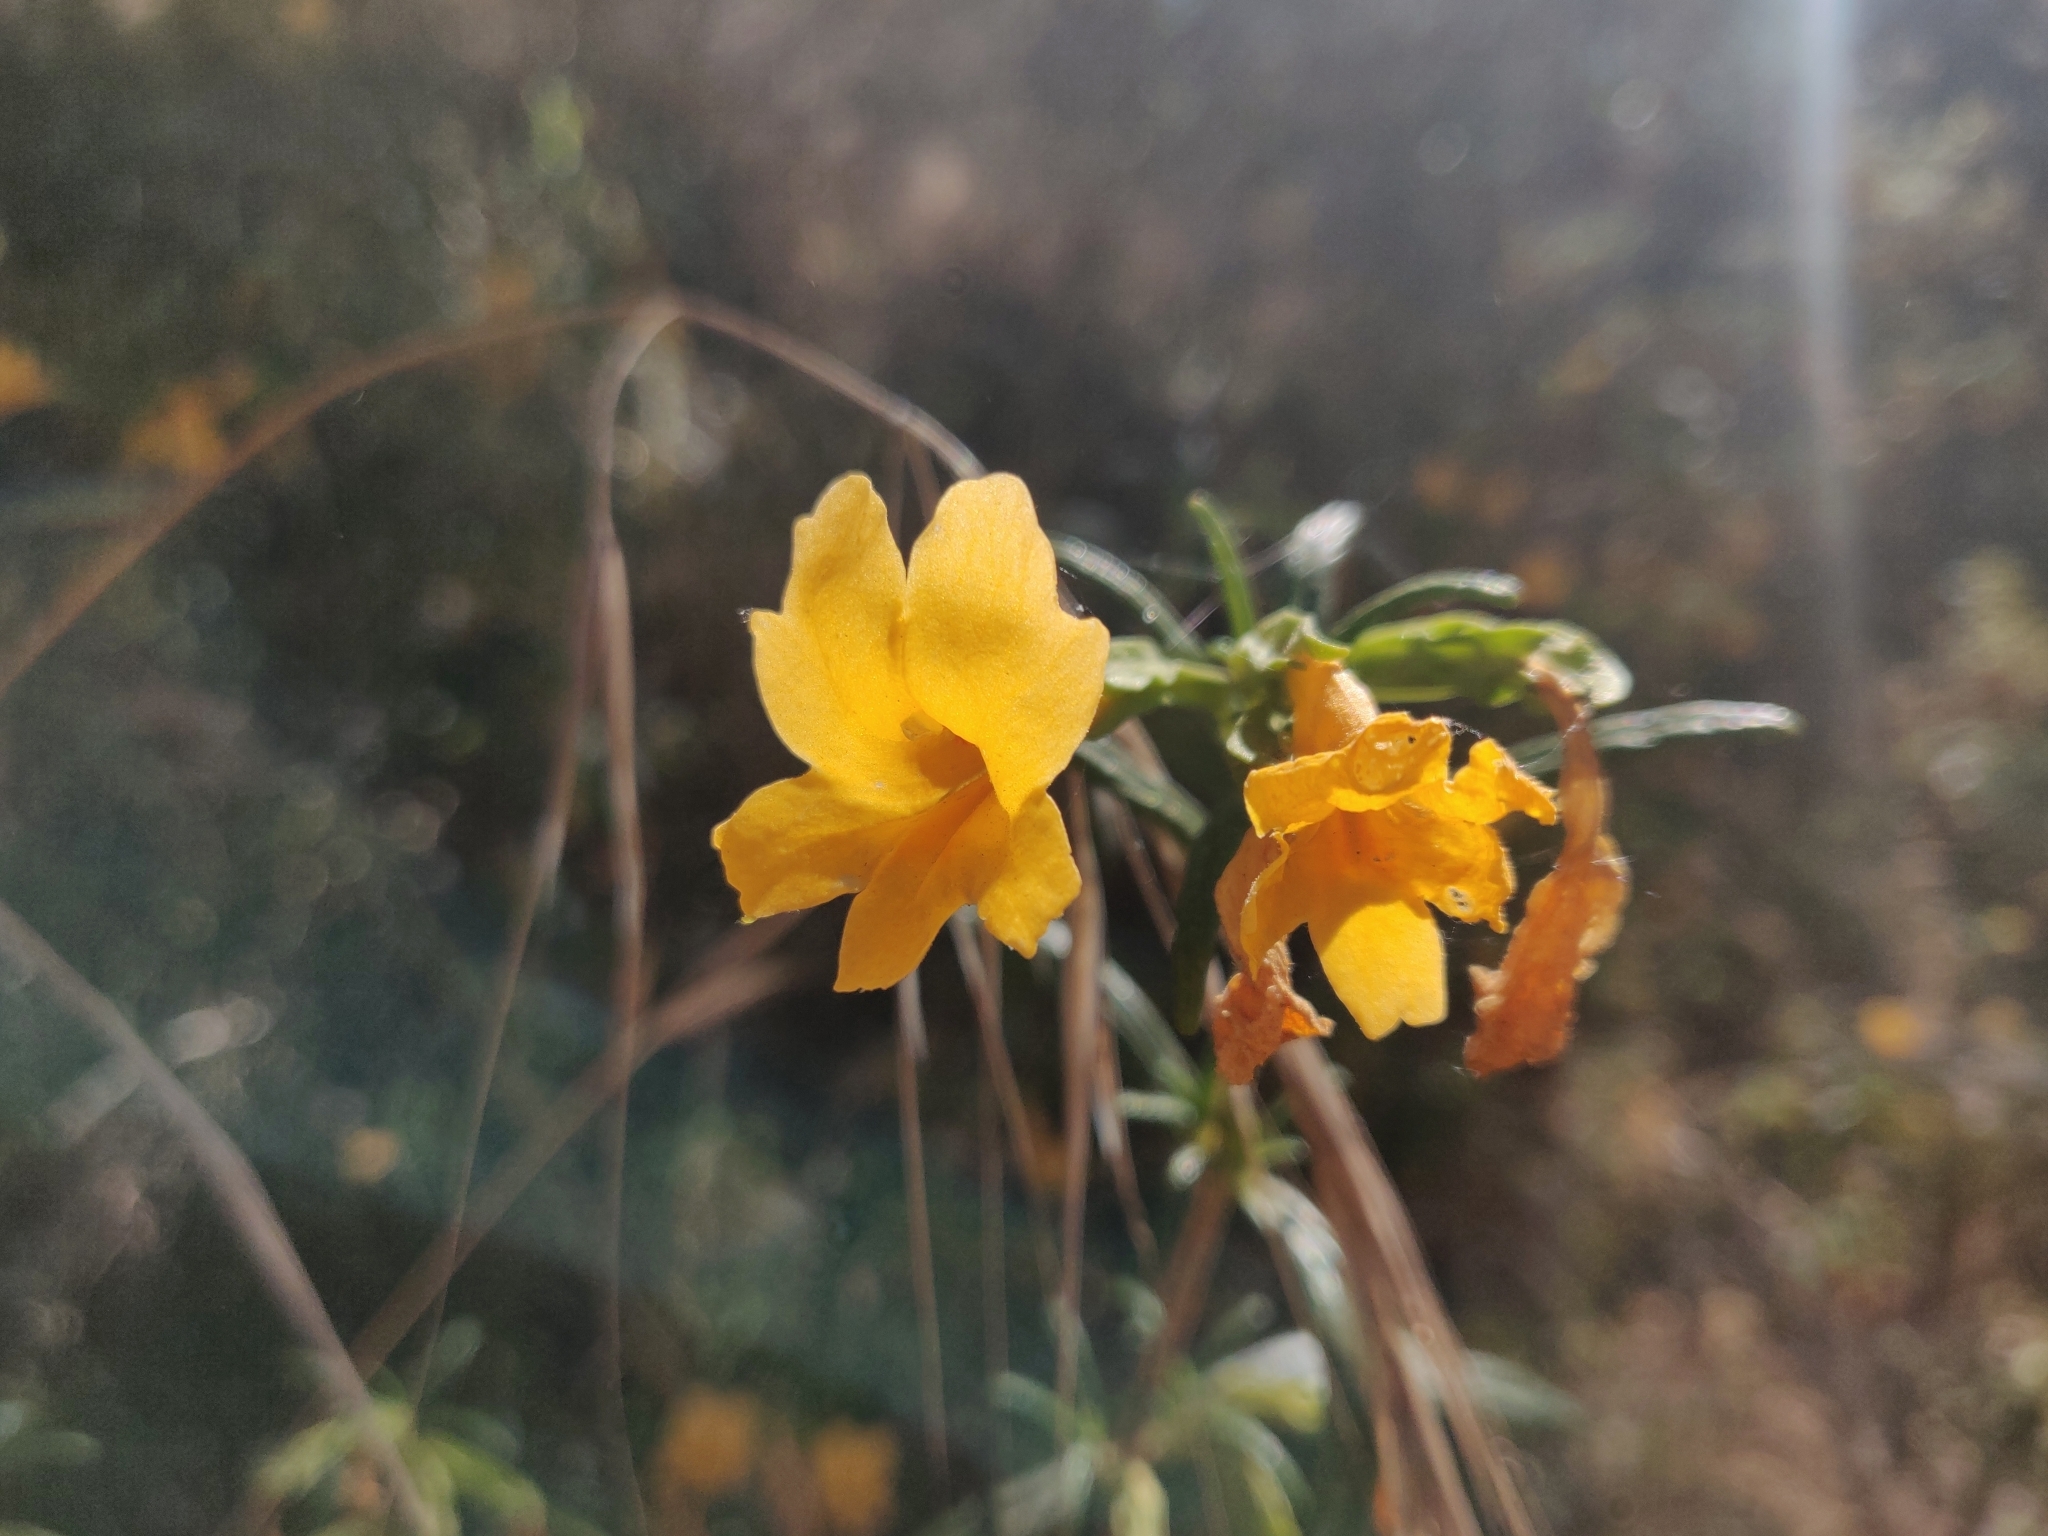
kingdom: Plantae
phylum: Tracheophyta
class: Magnoliopsida
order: Lamiales
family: Phrymaceae
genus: Diplacus
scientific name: Diplacus aurantiacus
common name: Bush monkey-flower
